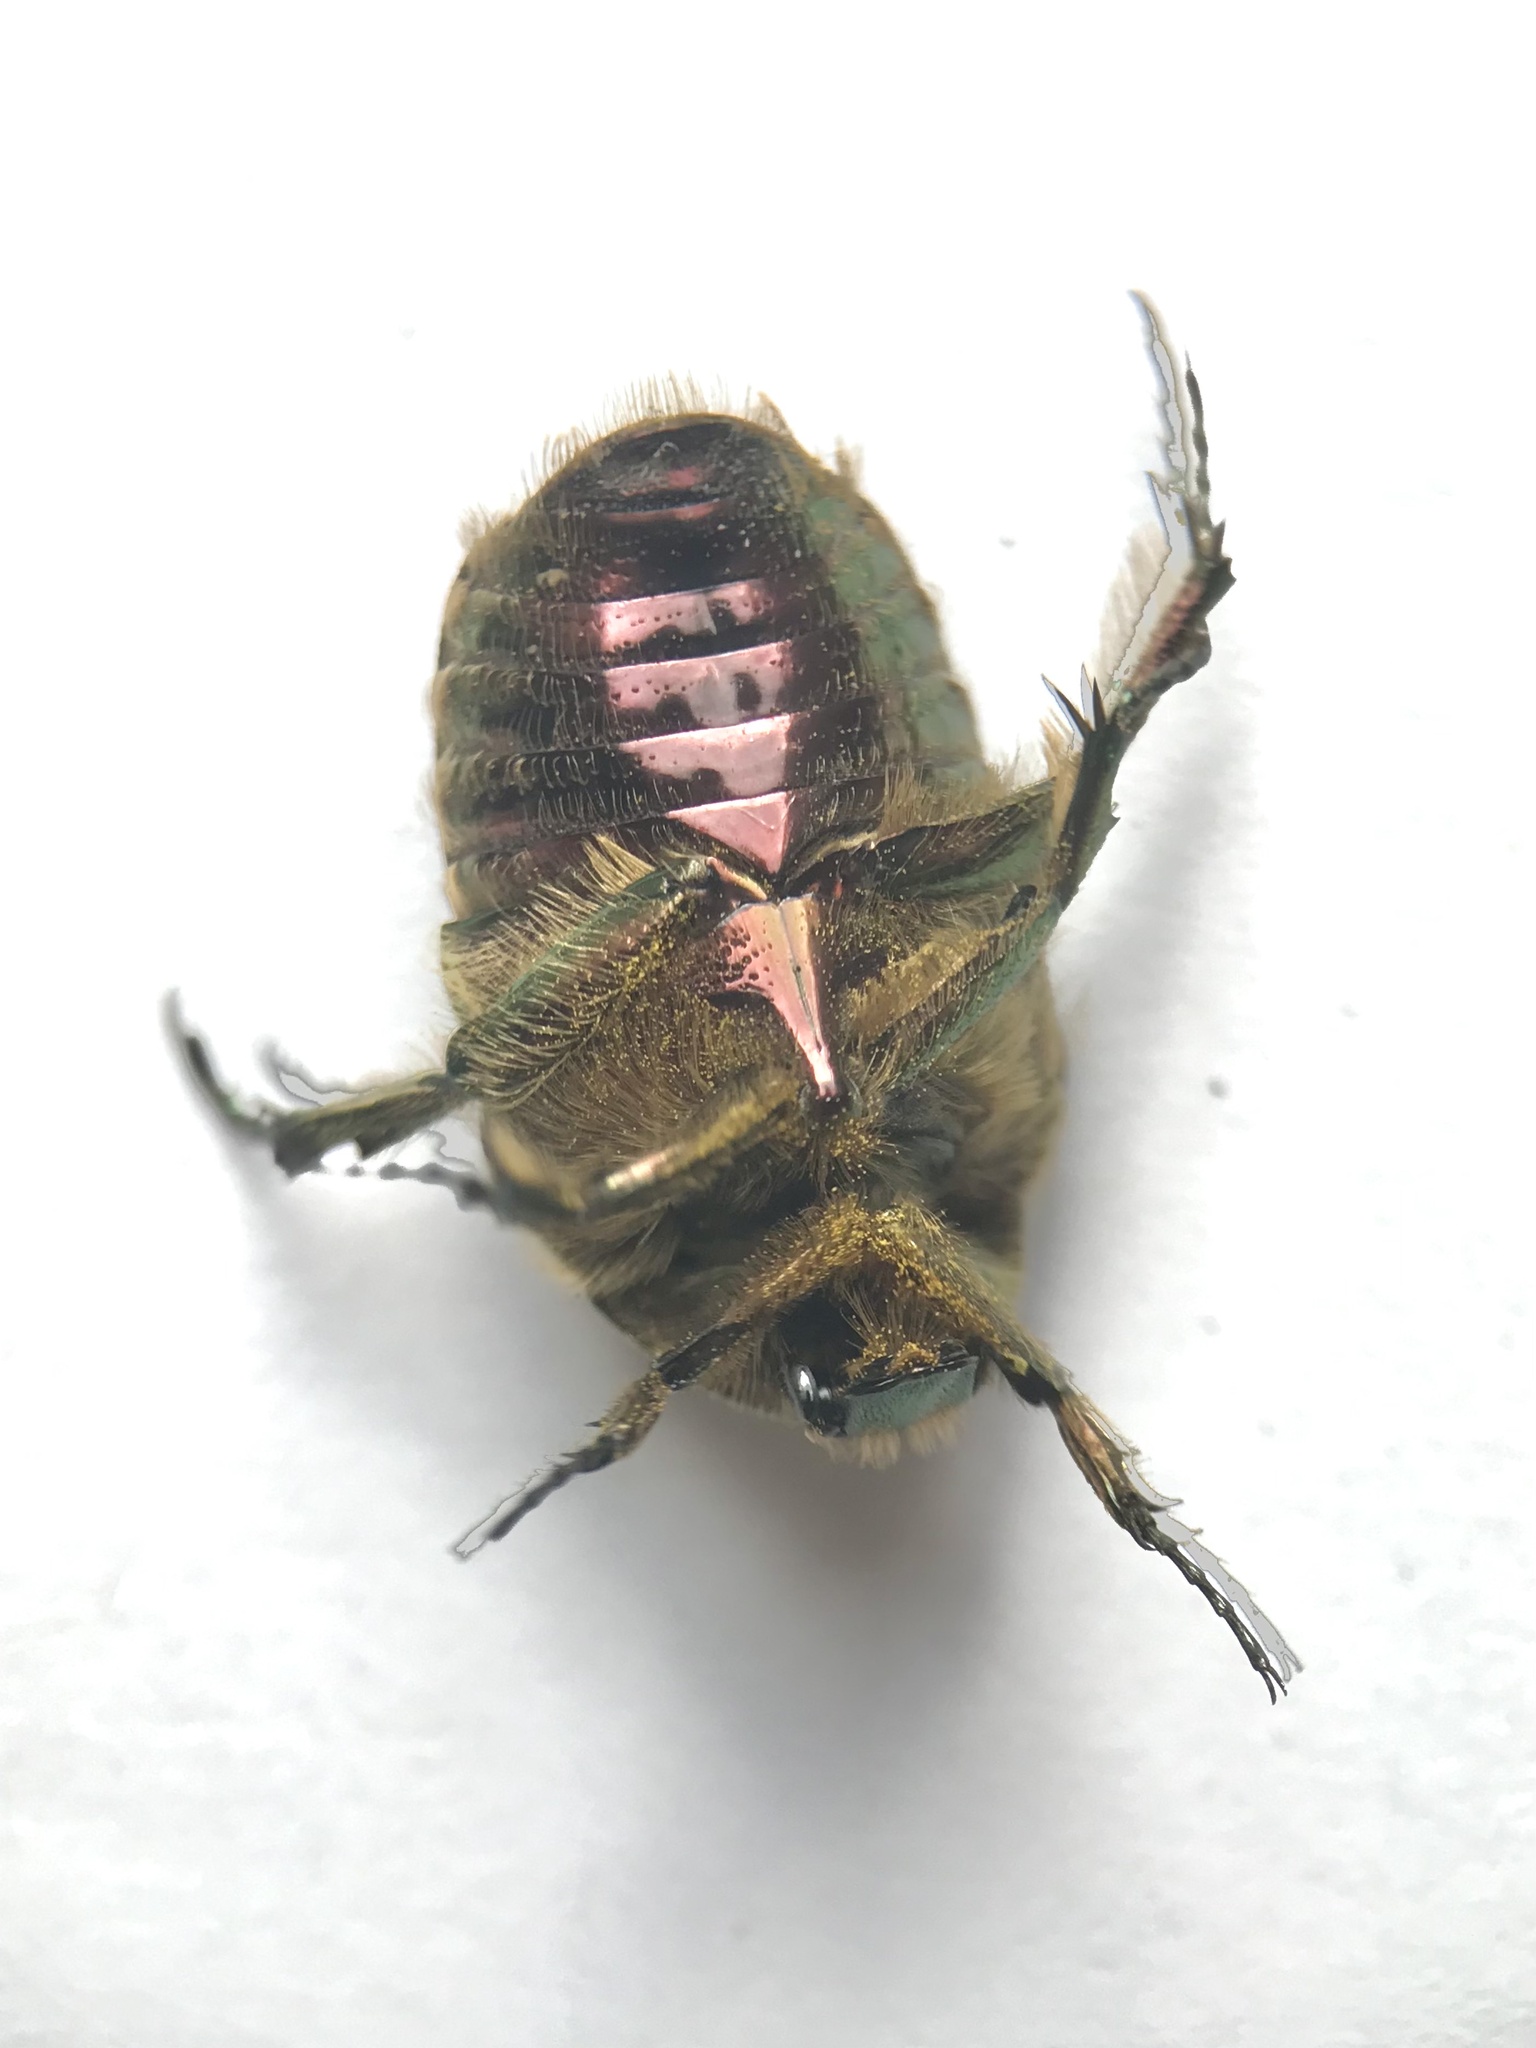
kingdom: Animalia
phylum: Arthropoda
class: Insecta
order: Coleoptera
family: Scarabaeidae
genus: Cetonia
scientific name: Cetonia aurata
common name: Rose chafer
